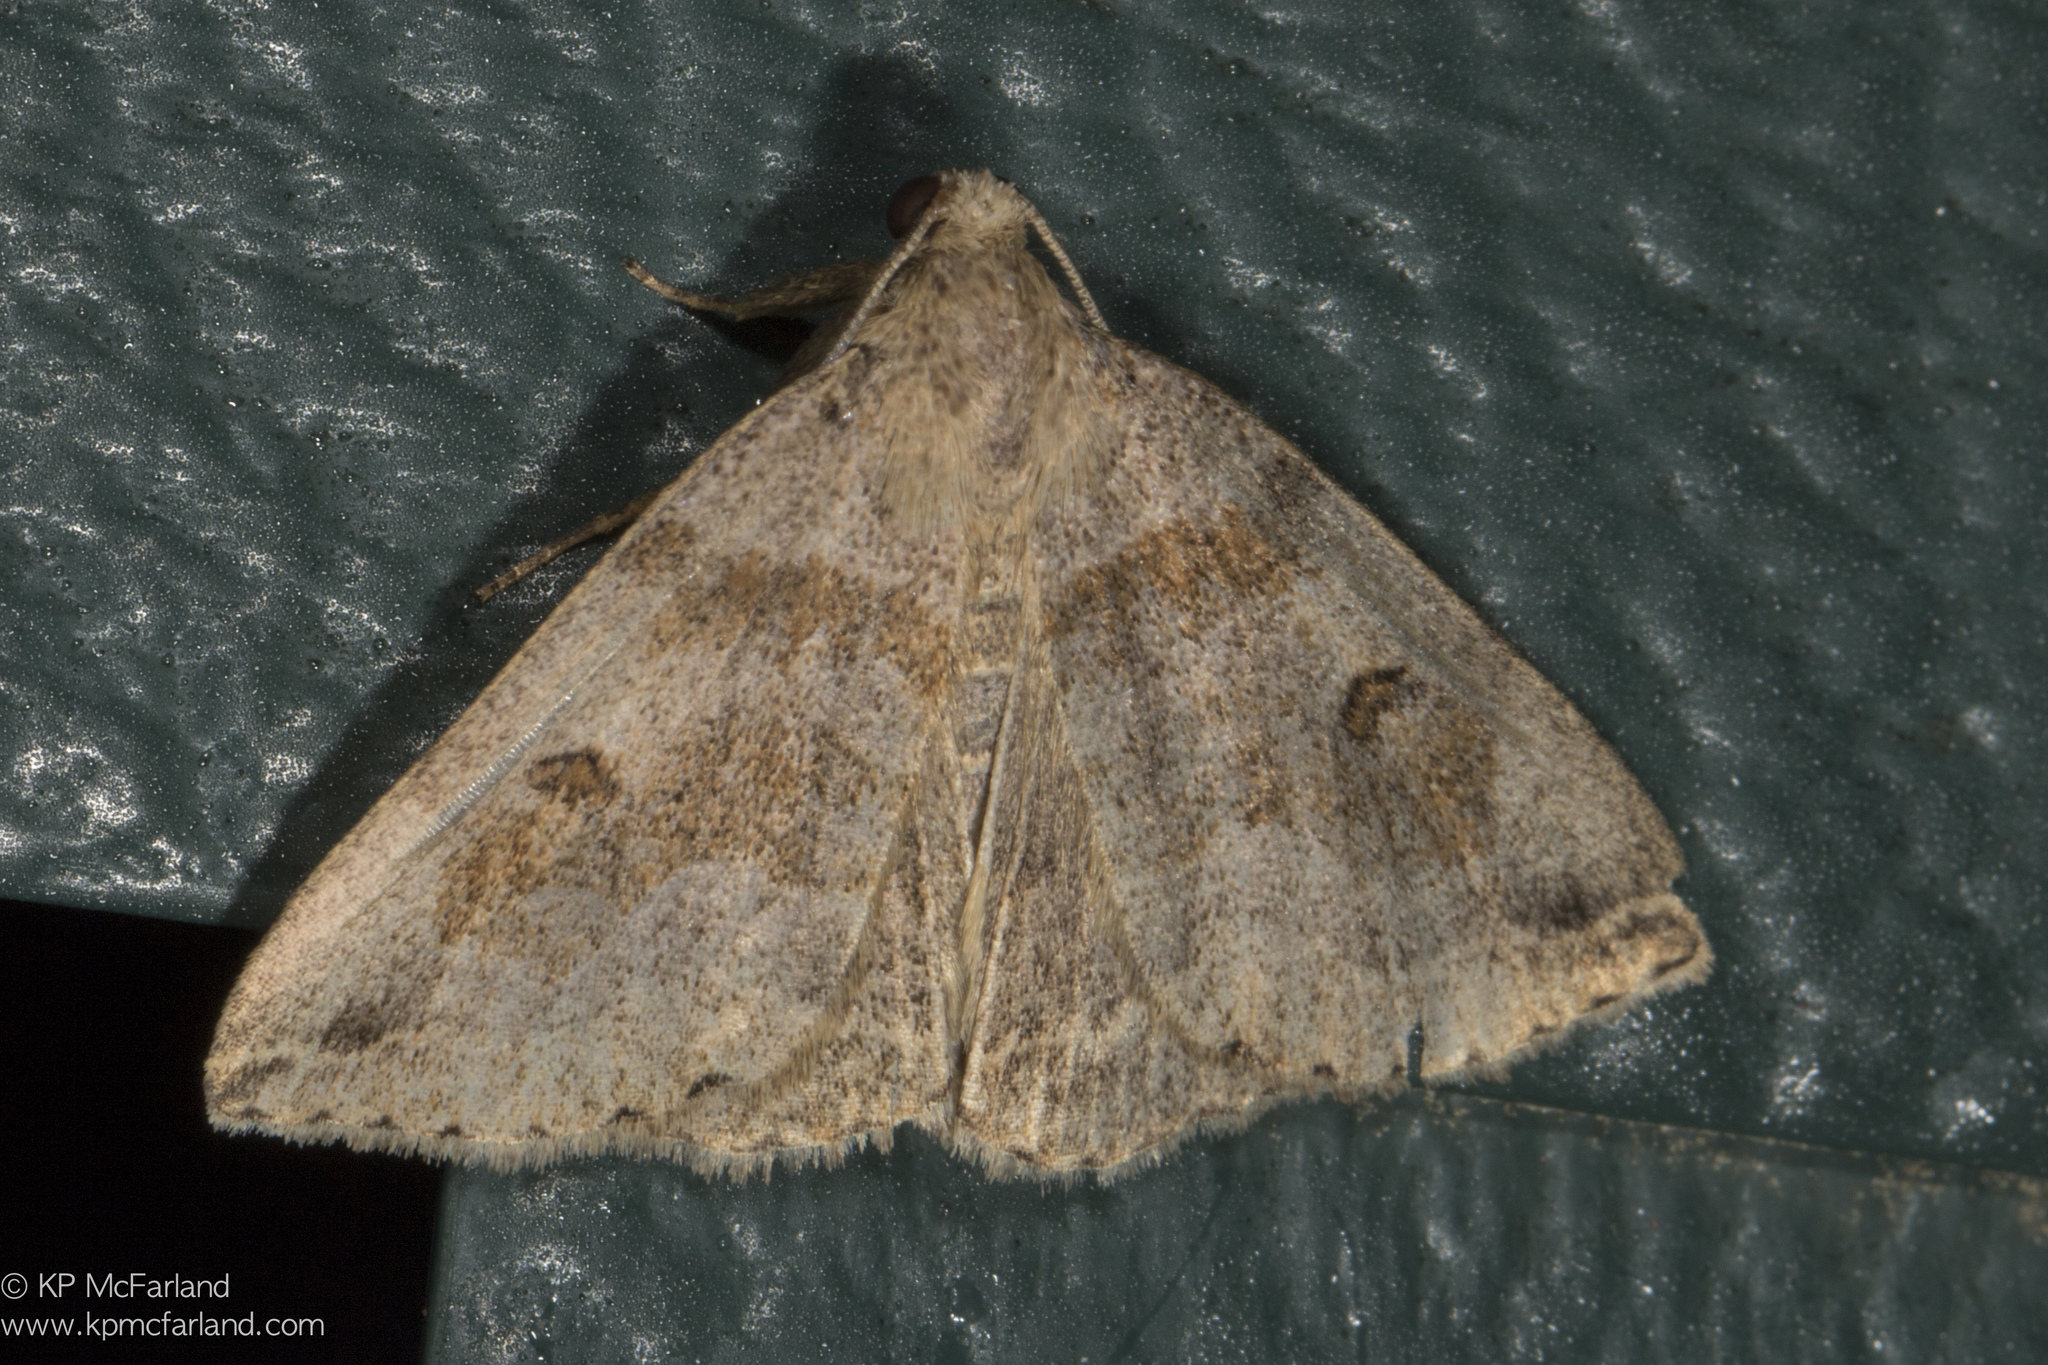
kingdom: Animalia
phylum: Arthropoda
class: Insecta
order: Lepidoptera
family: Erebidae
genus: Zanclognatha
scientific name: Zanclognatha laevigata
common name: Variable fan-foot
